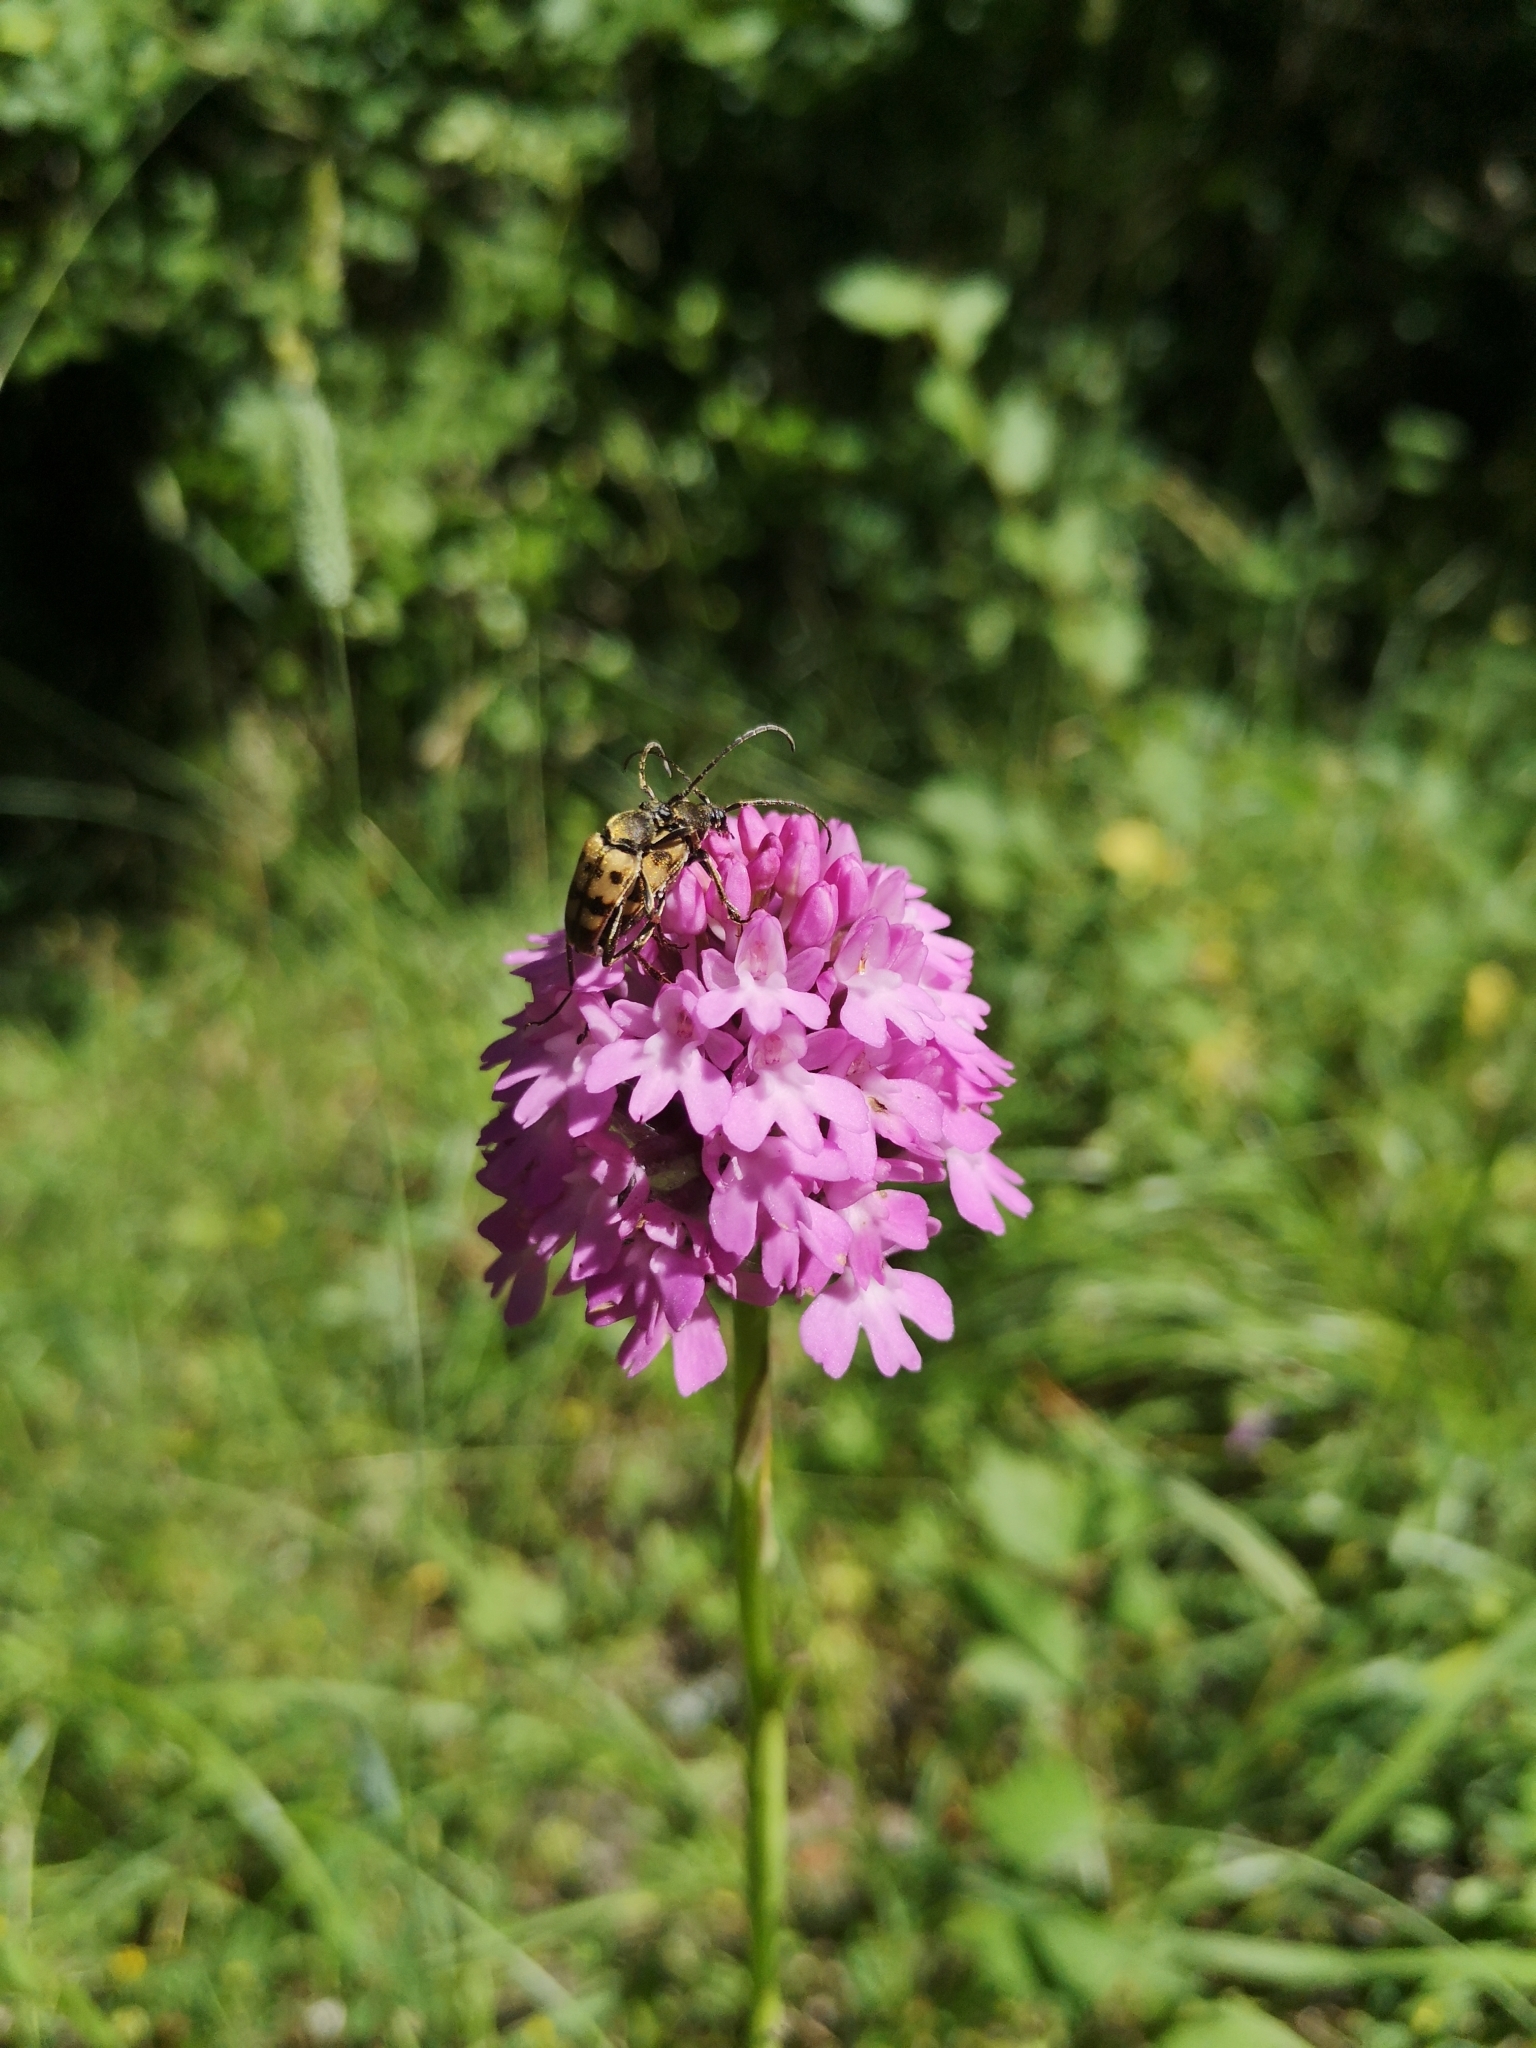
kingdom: Plantae
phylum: Tracheophyta
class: Liliopsida
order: Asparagales
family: Orchidaceae
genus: Anacamptis
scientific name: Anacamptis pyramidalis
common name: Pyramidal orchid
